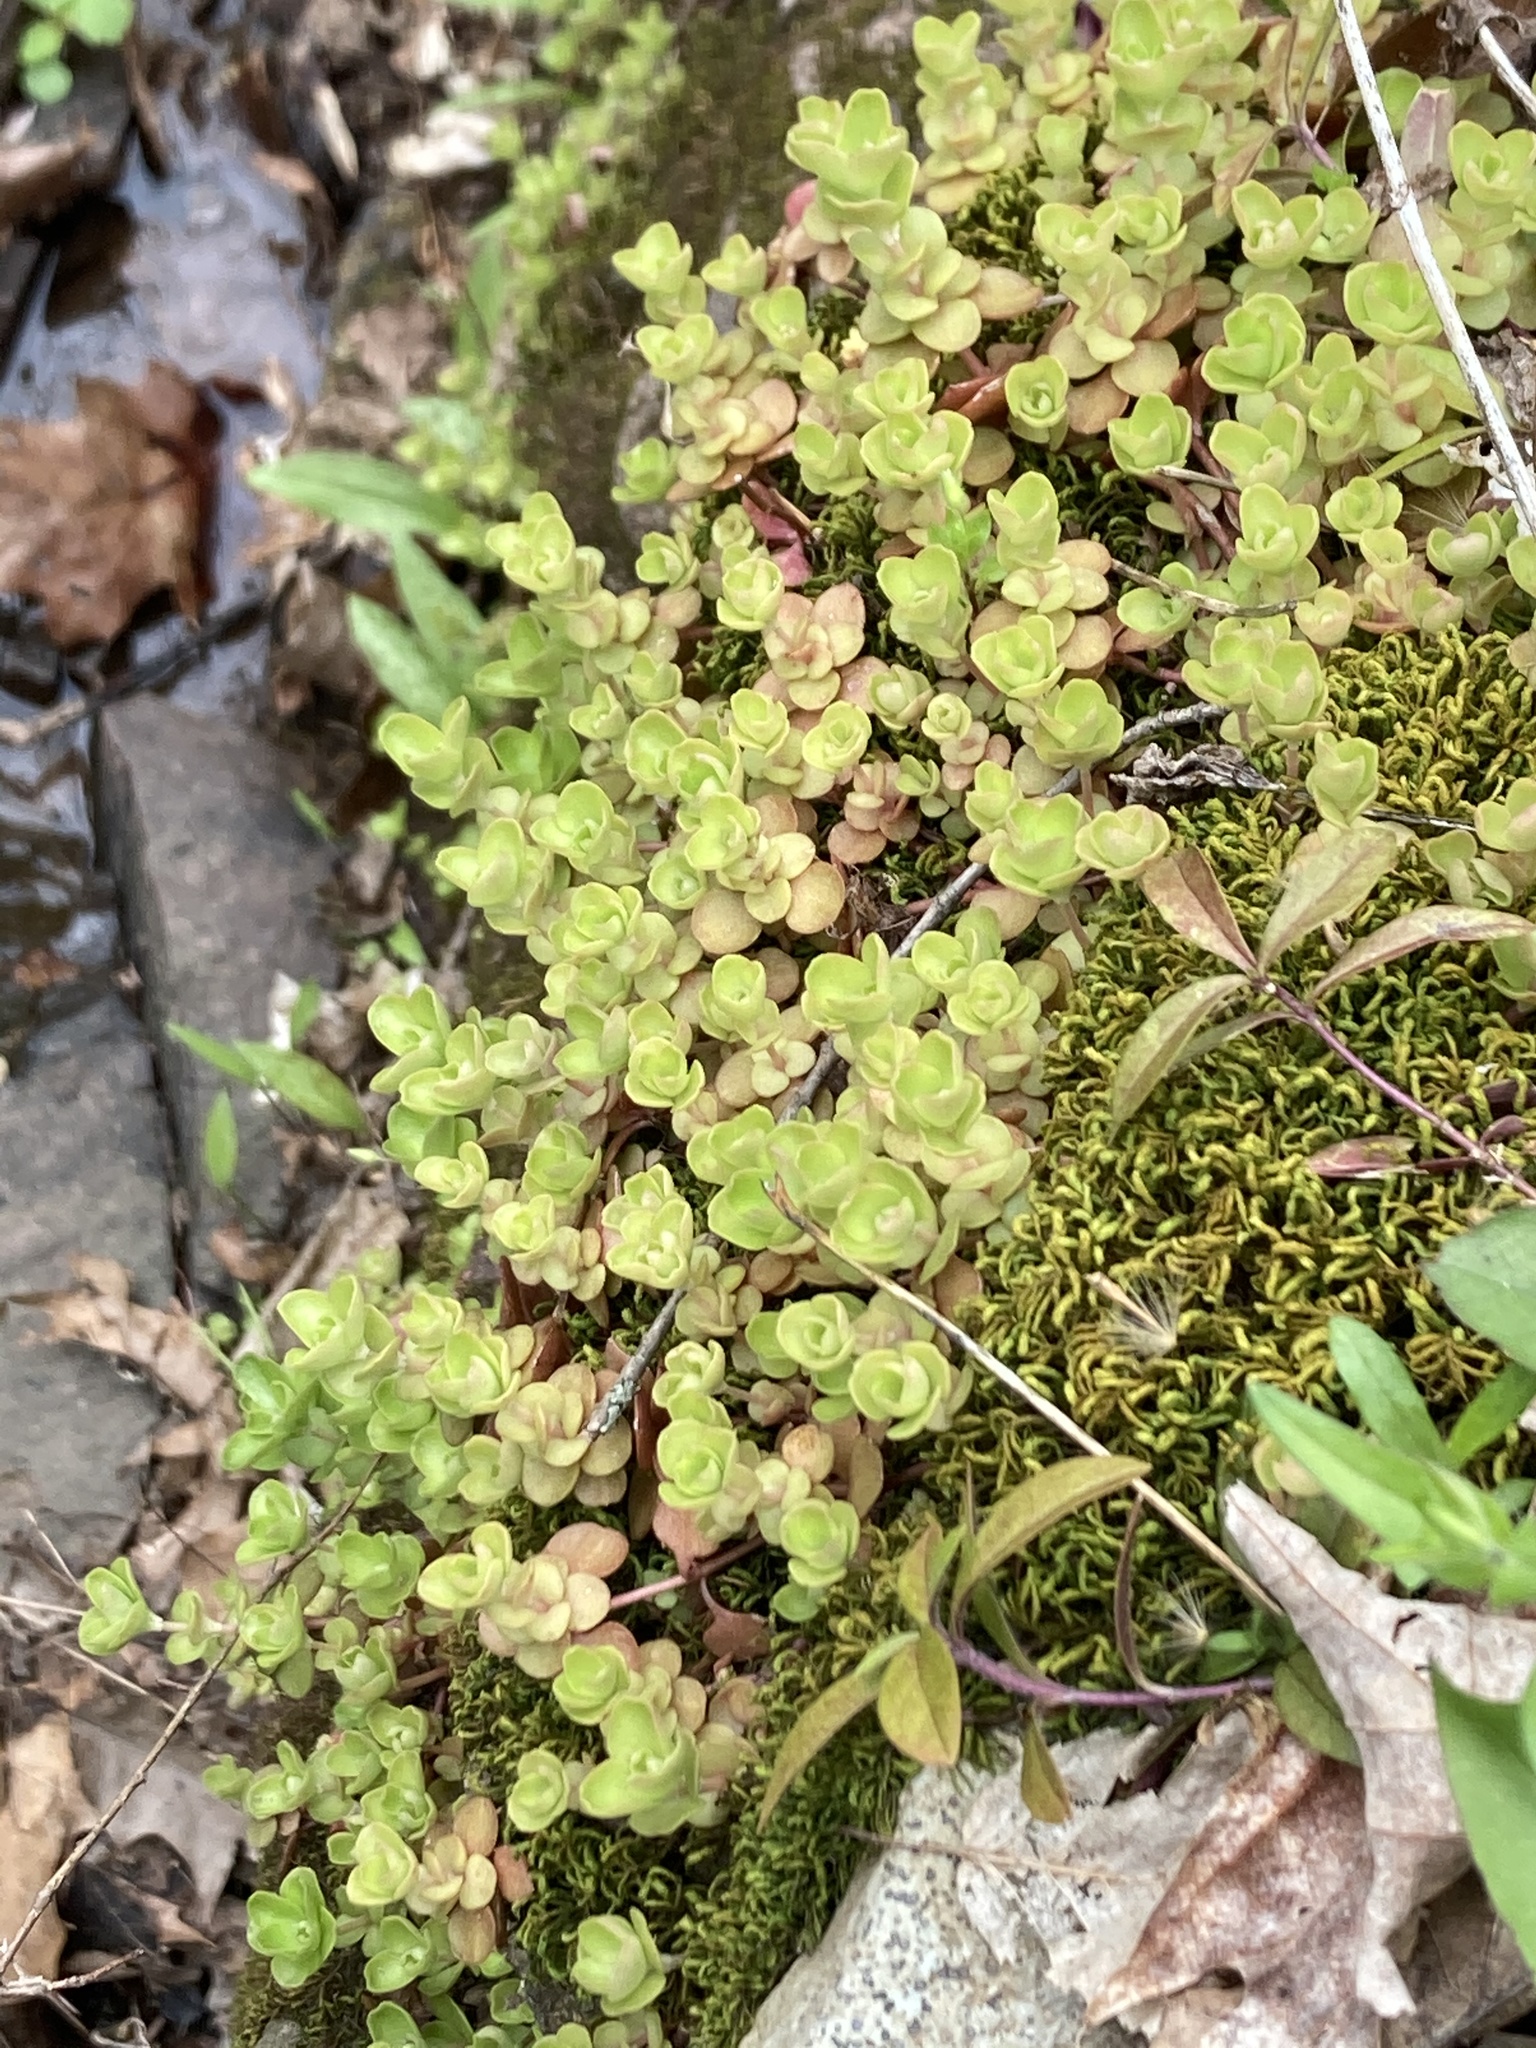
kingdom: Plantae
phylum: Tracheophyta
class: Magnoliopsida
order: Saxifragales
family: Crassulaceae
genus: Sedum
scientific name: Sedum ternatum
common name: Wild stonecrop
